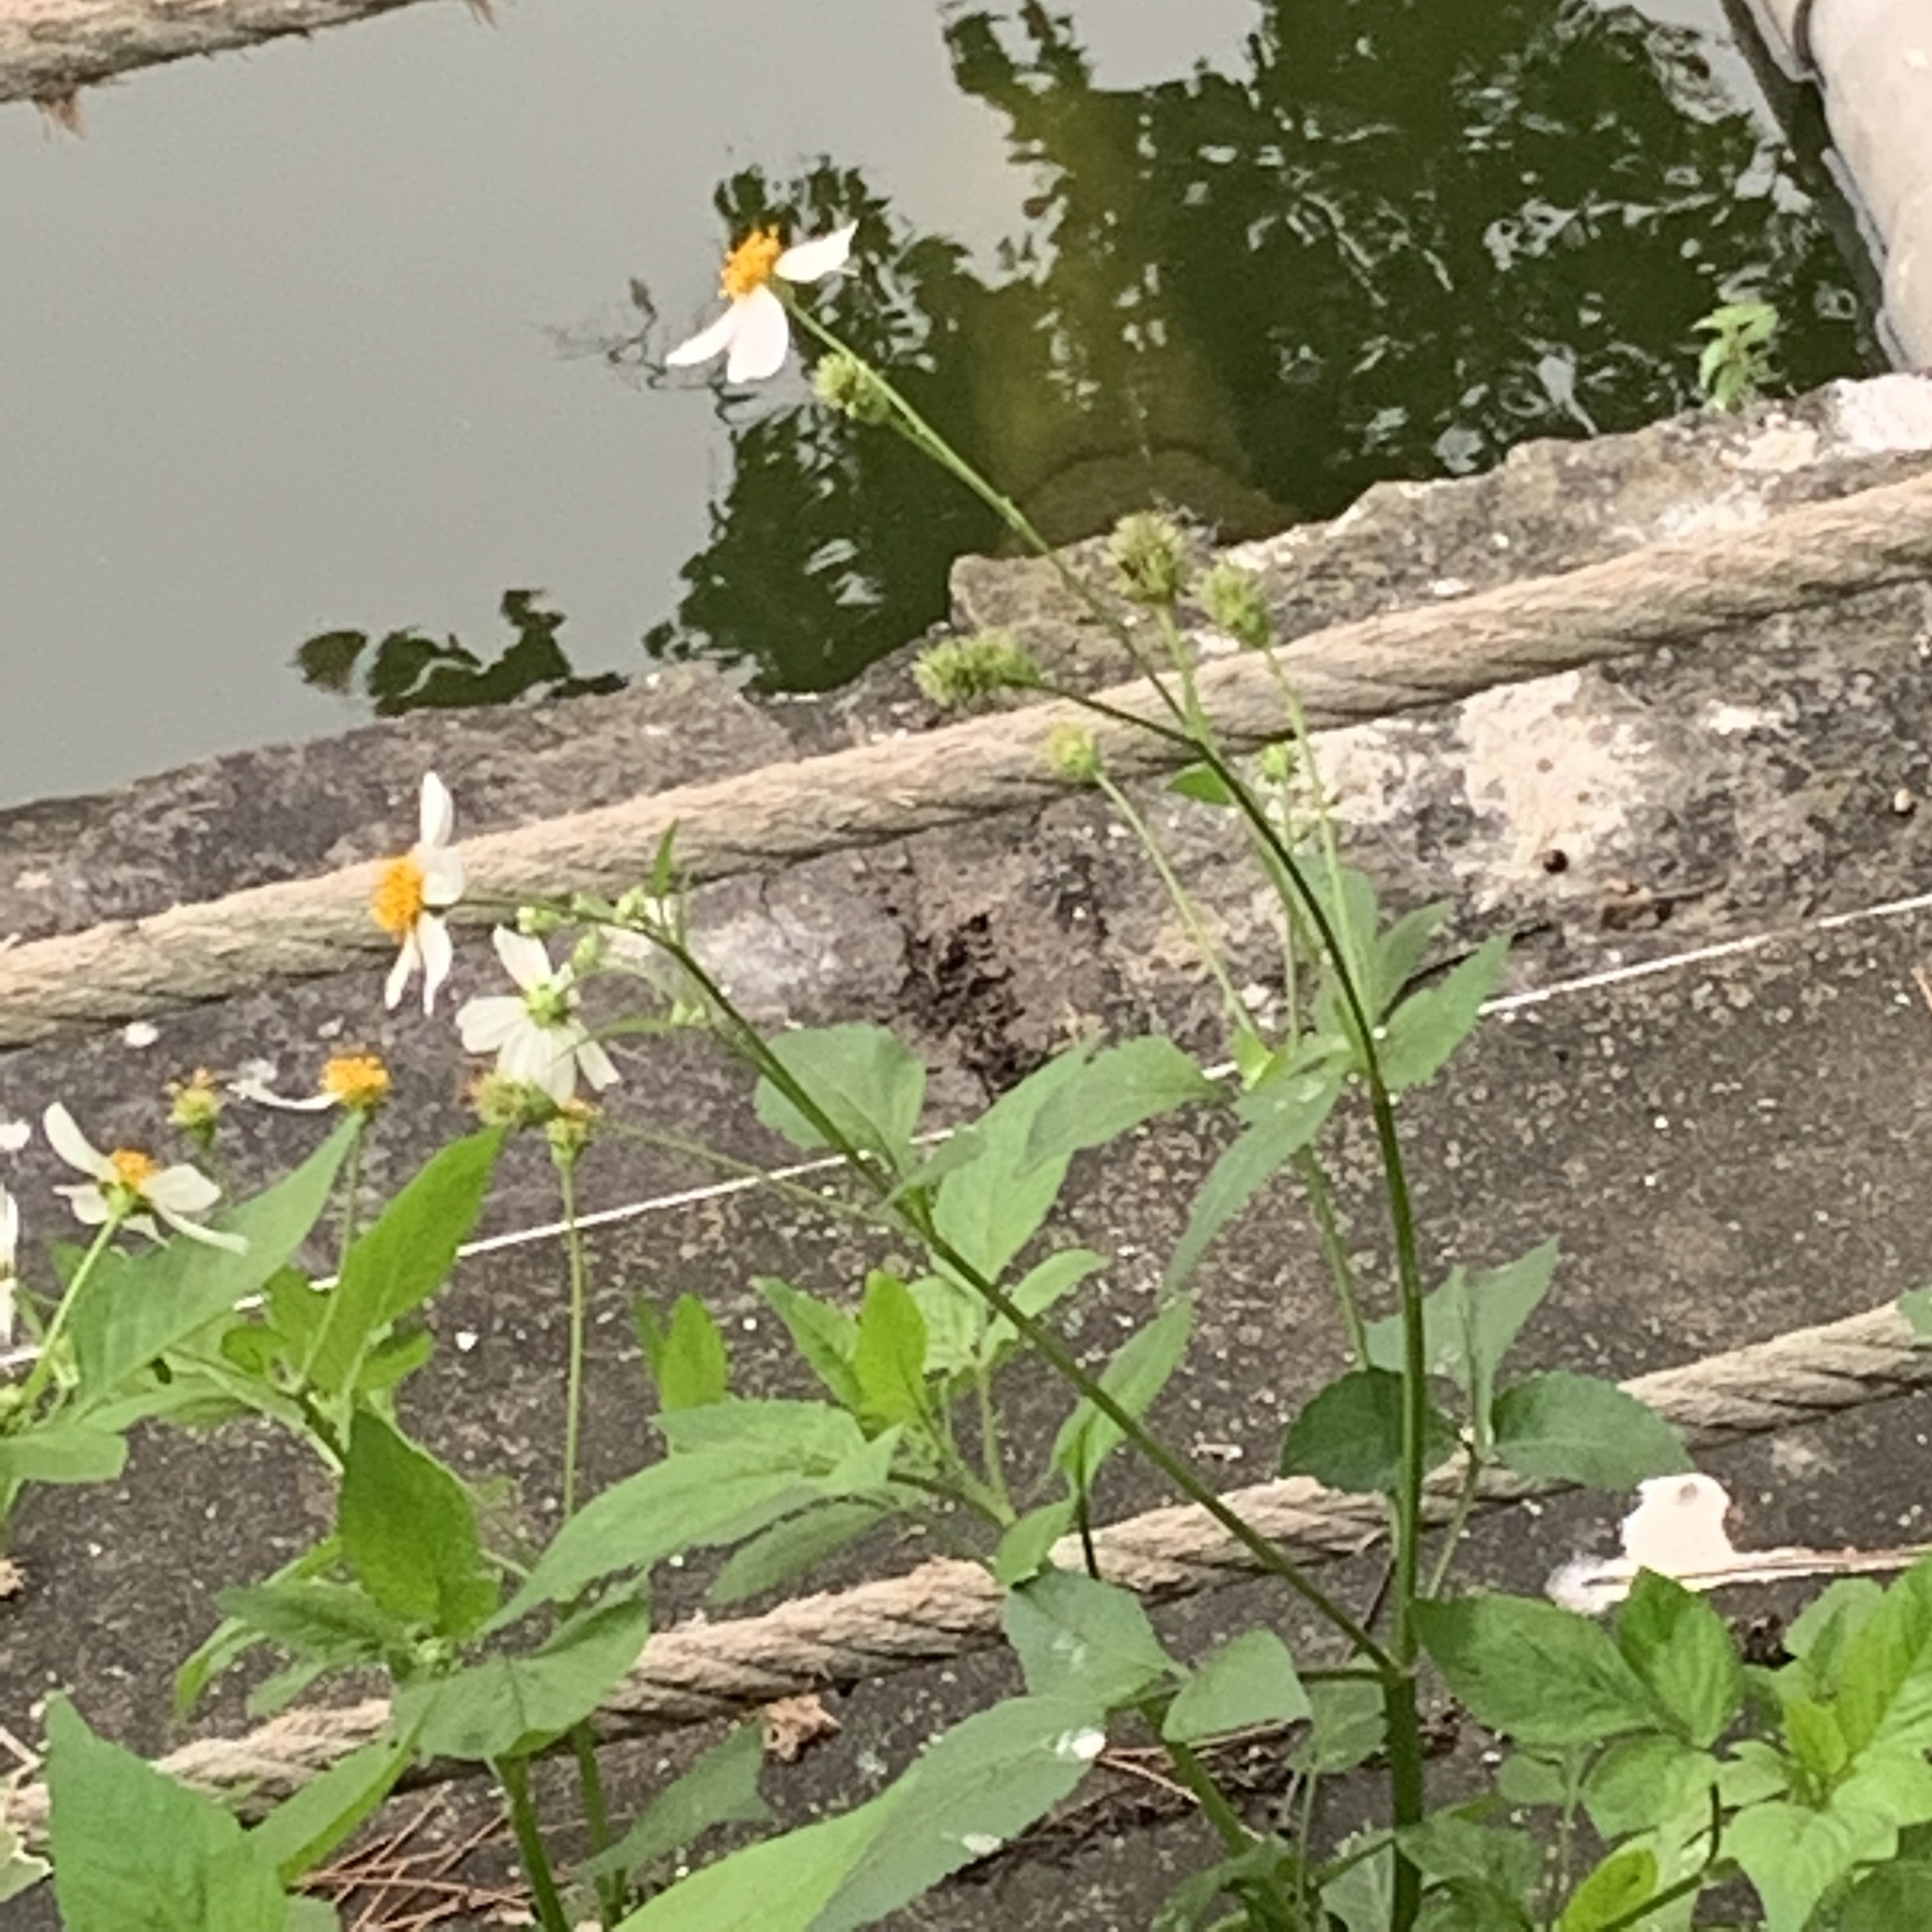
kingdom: Plantae
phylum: Tracheophyta
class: Magnoliopsida
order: Asterales
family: Asteraceae
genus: Bidens
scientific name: Bidens alba
